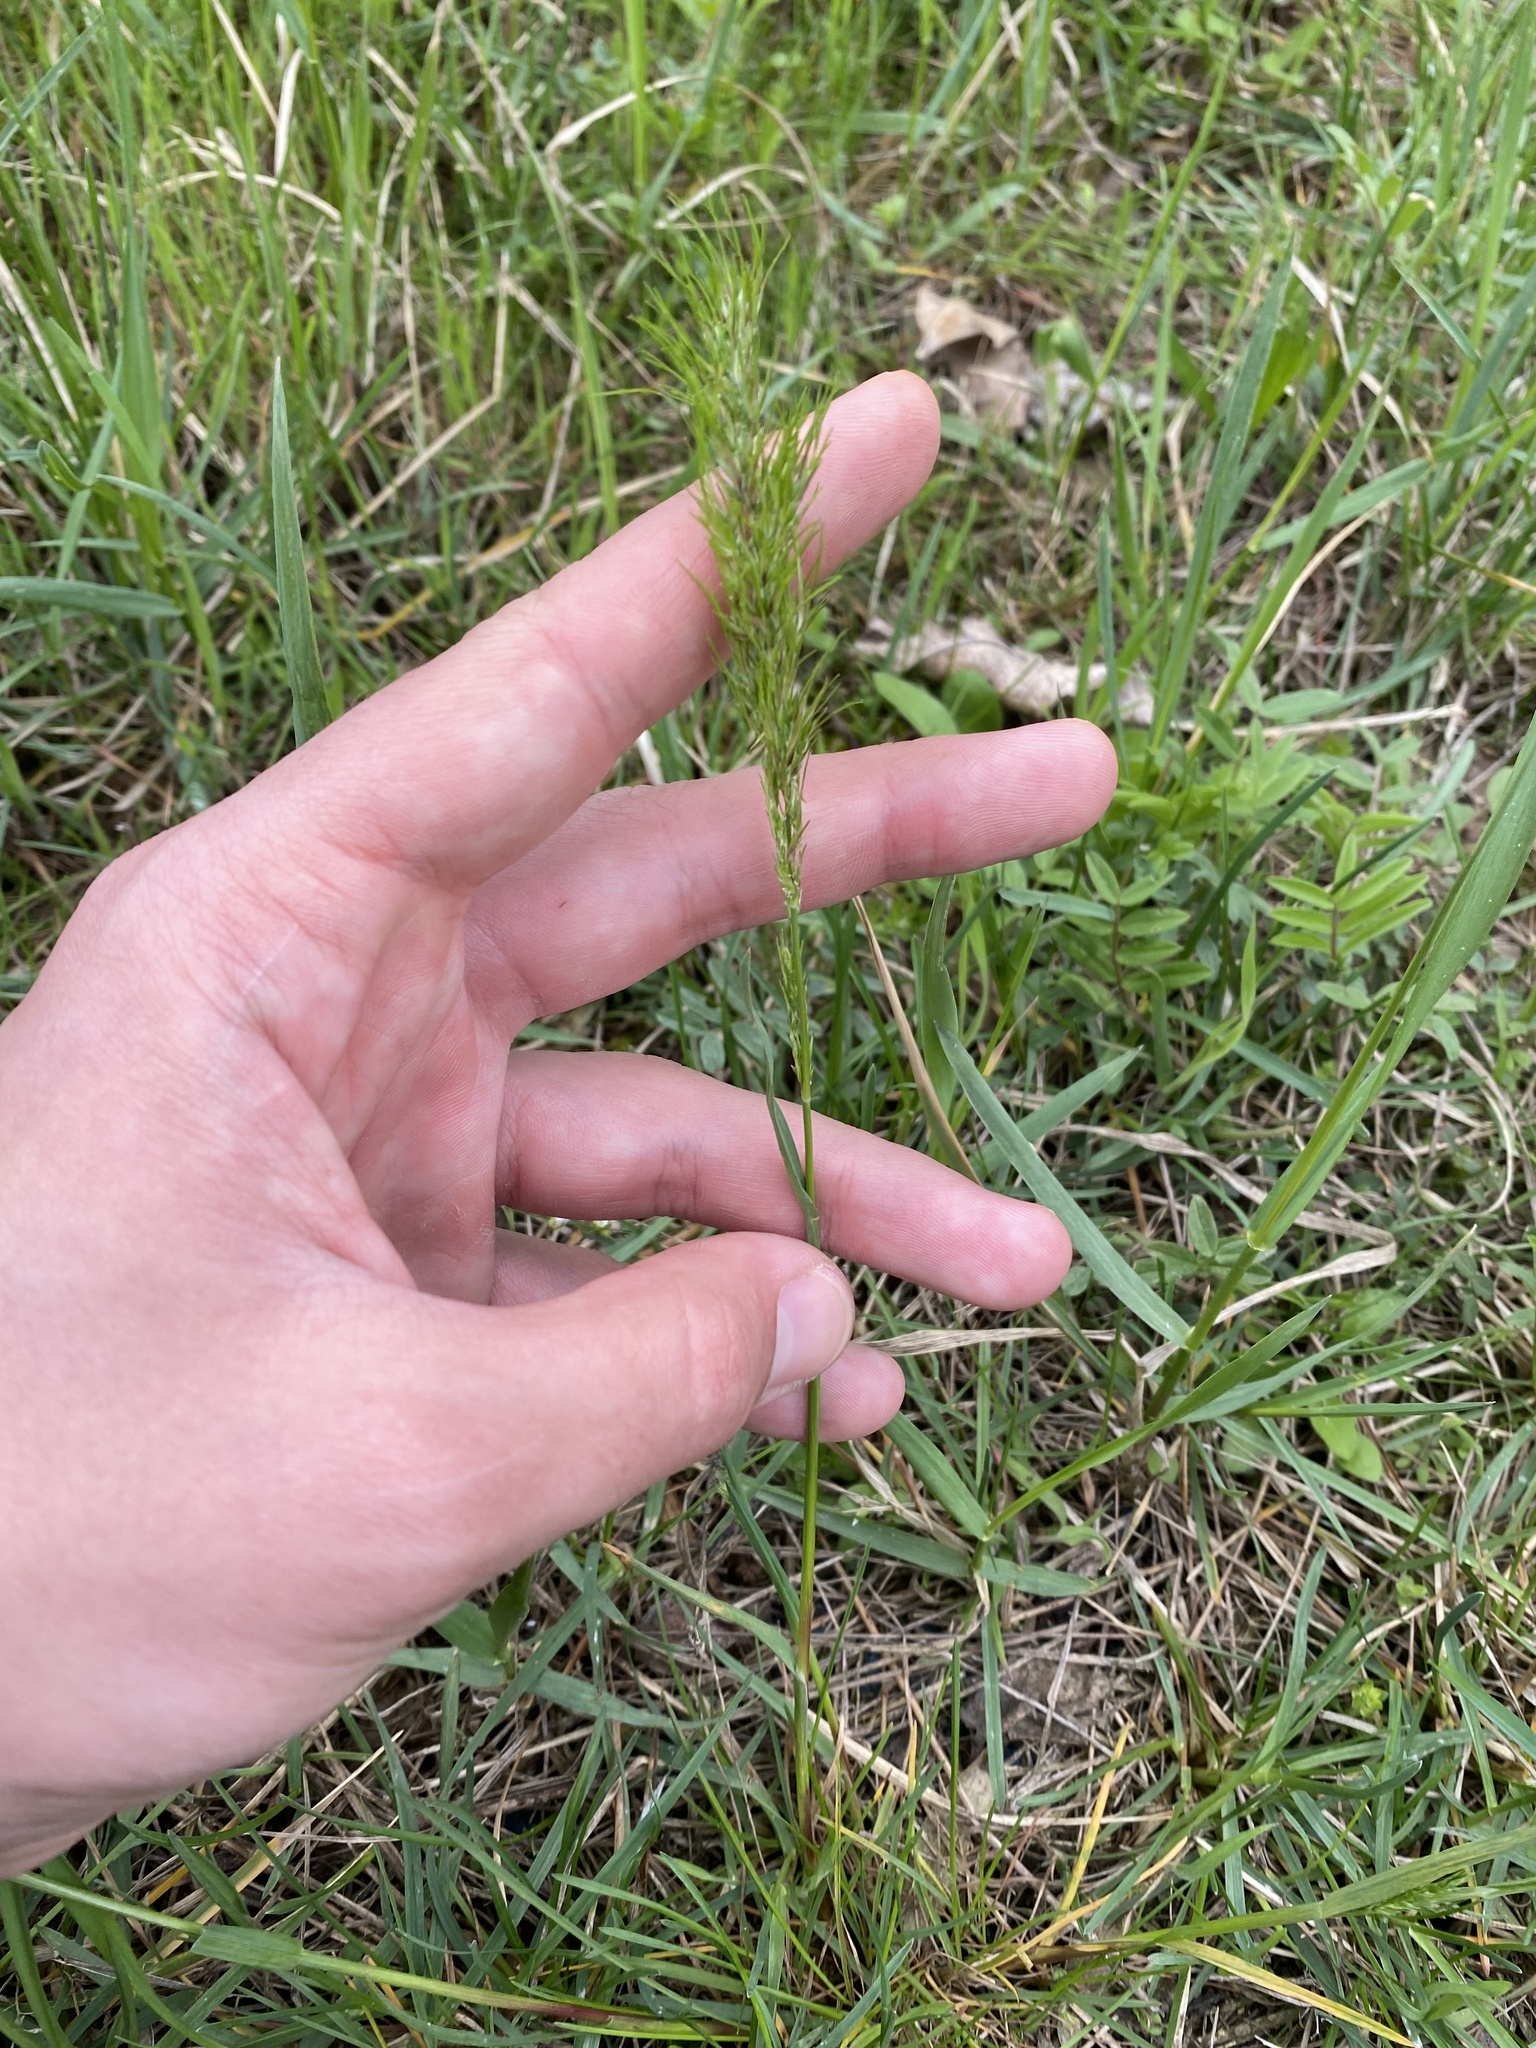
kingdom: Plantae
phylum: Tracheophyta
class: Liliopsida
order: Poales
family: Poaceae
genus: Poa
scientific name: Poa bulbosa
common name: Bulbous bluegrass
